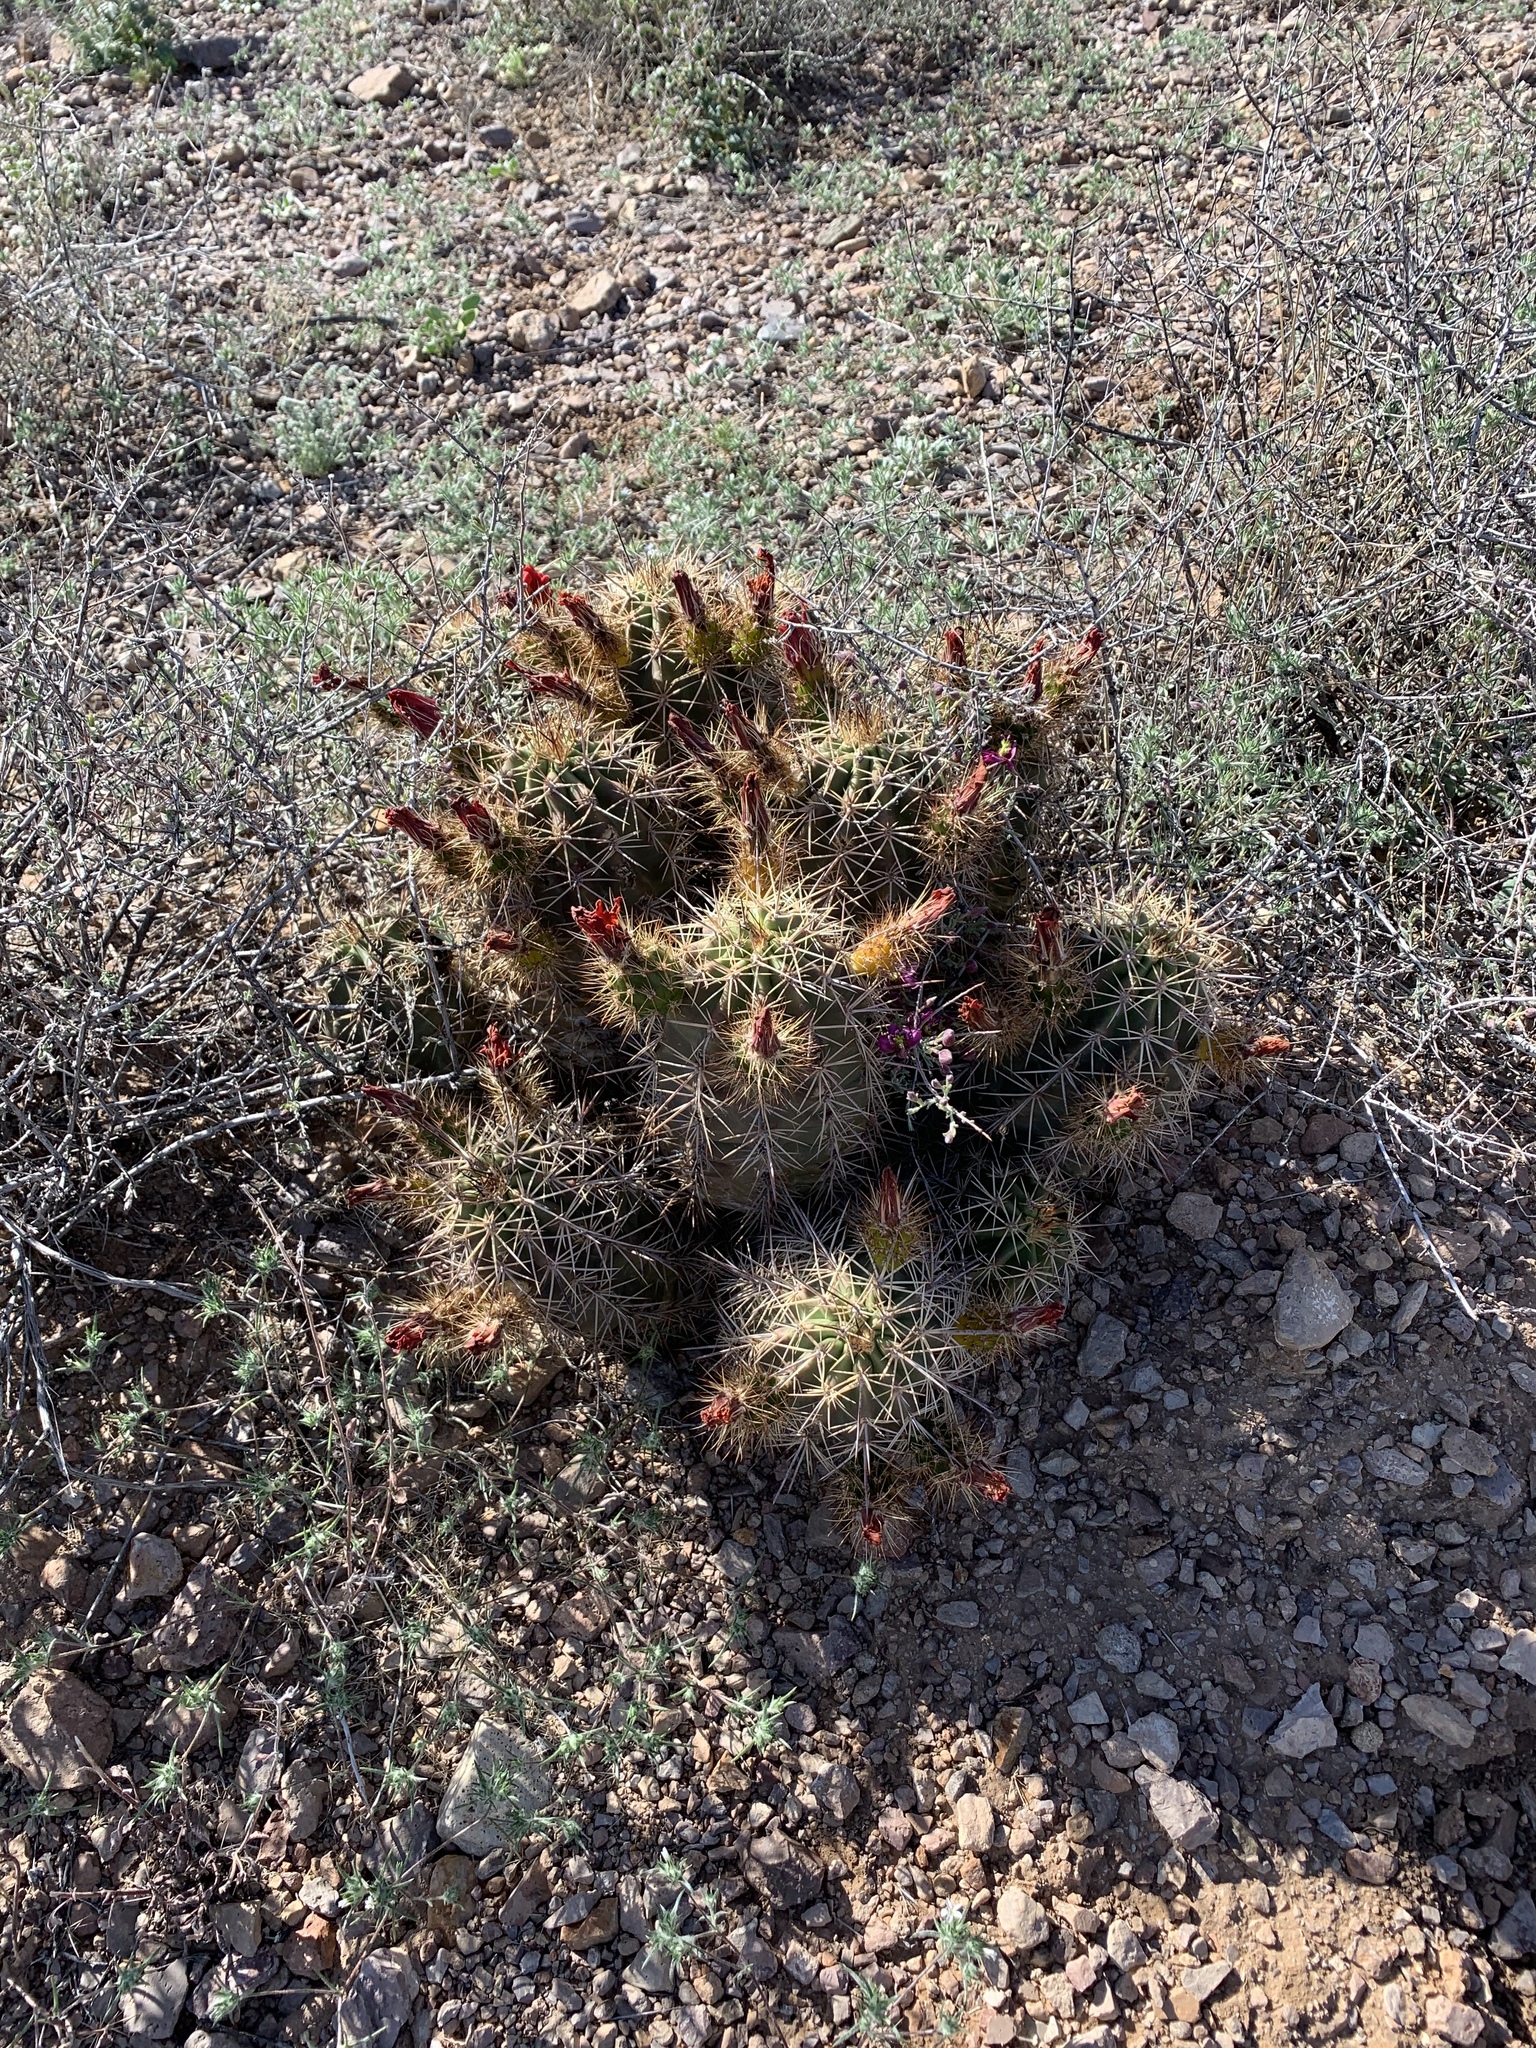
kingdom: Plantae
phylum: Tracheophyta
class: Magnoliopsida
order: Caryophyllales
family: Cactaceae
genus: Echinocereus
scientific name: Echinocereus coccineus
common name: Scarlet hedgehog cactus
